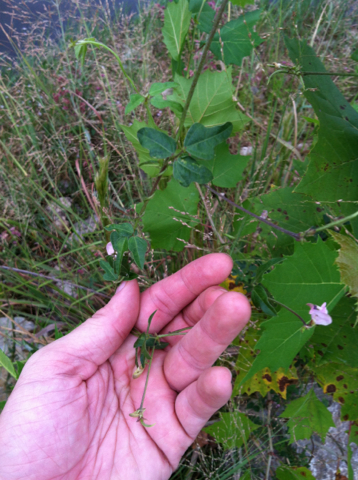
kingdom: Plantae
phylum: Tracheophyta
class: Magnoliopsida
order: Fabales
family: Fabaceae
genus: Strophostyles
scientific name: Strophostyles helvola
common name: Trailing wild bean
